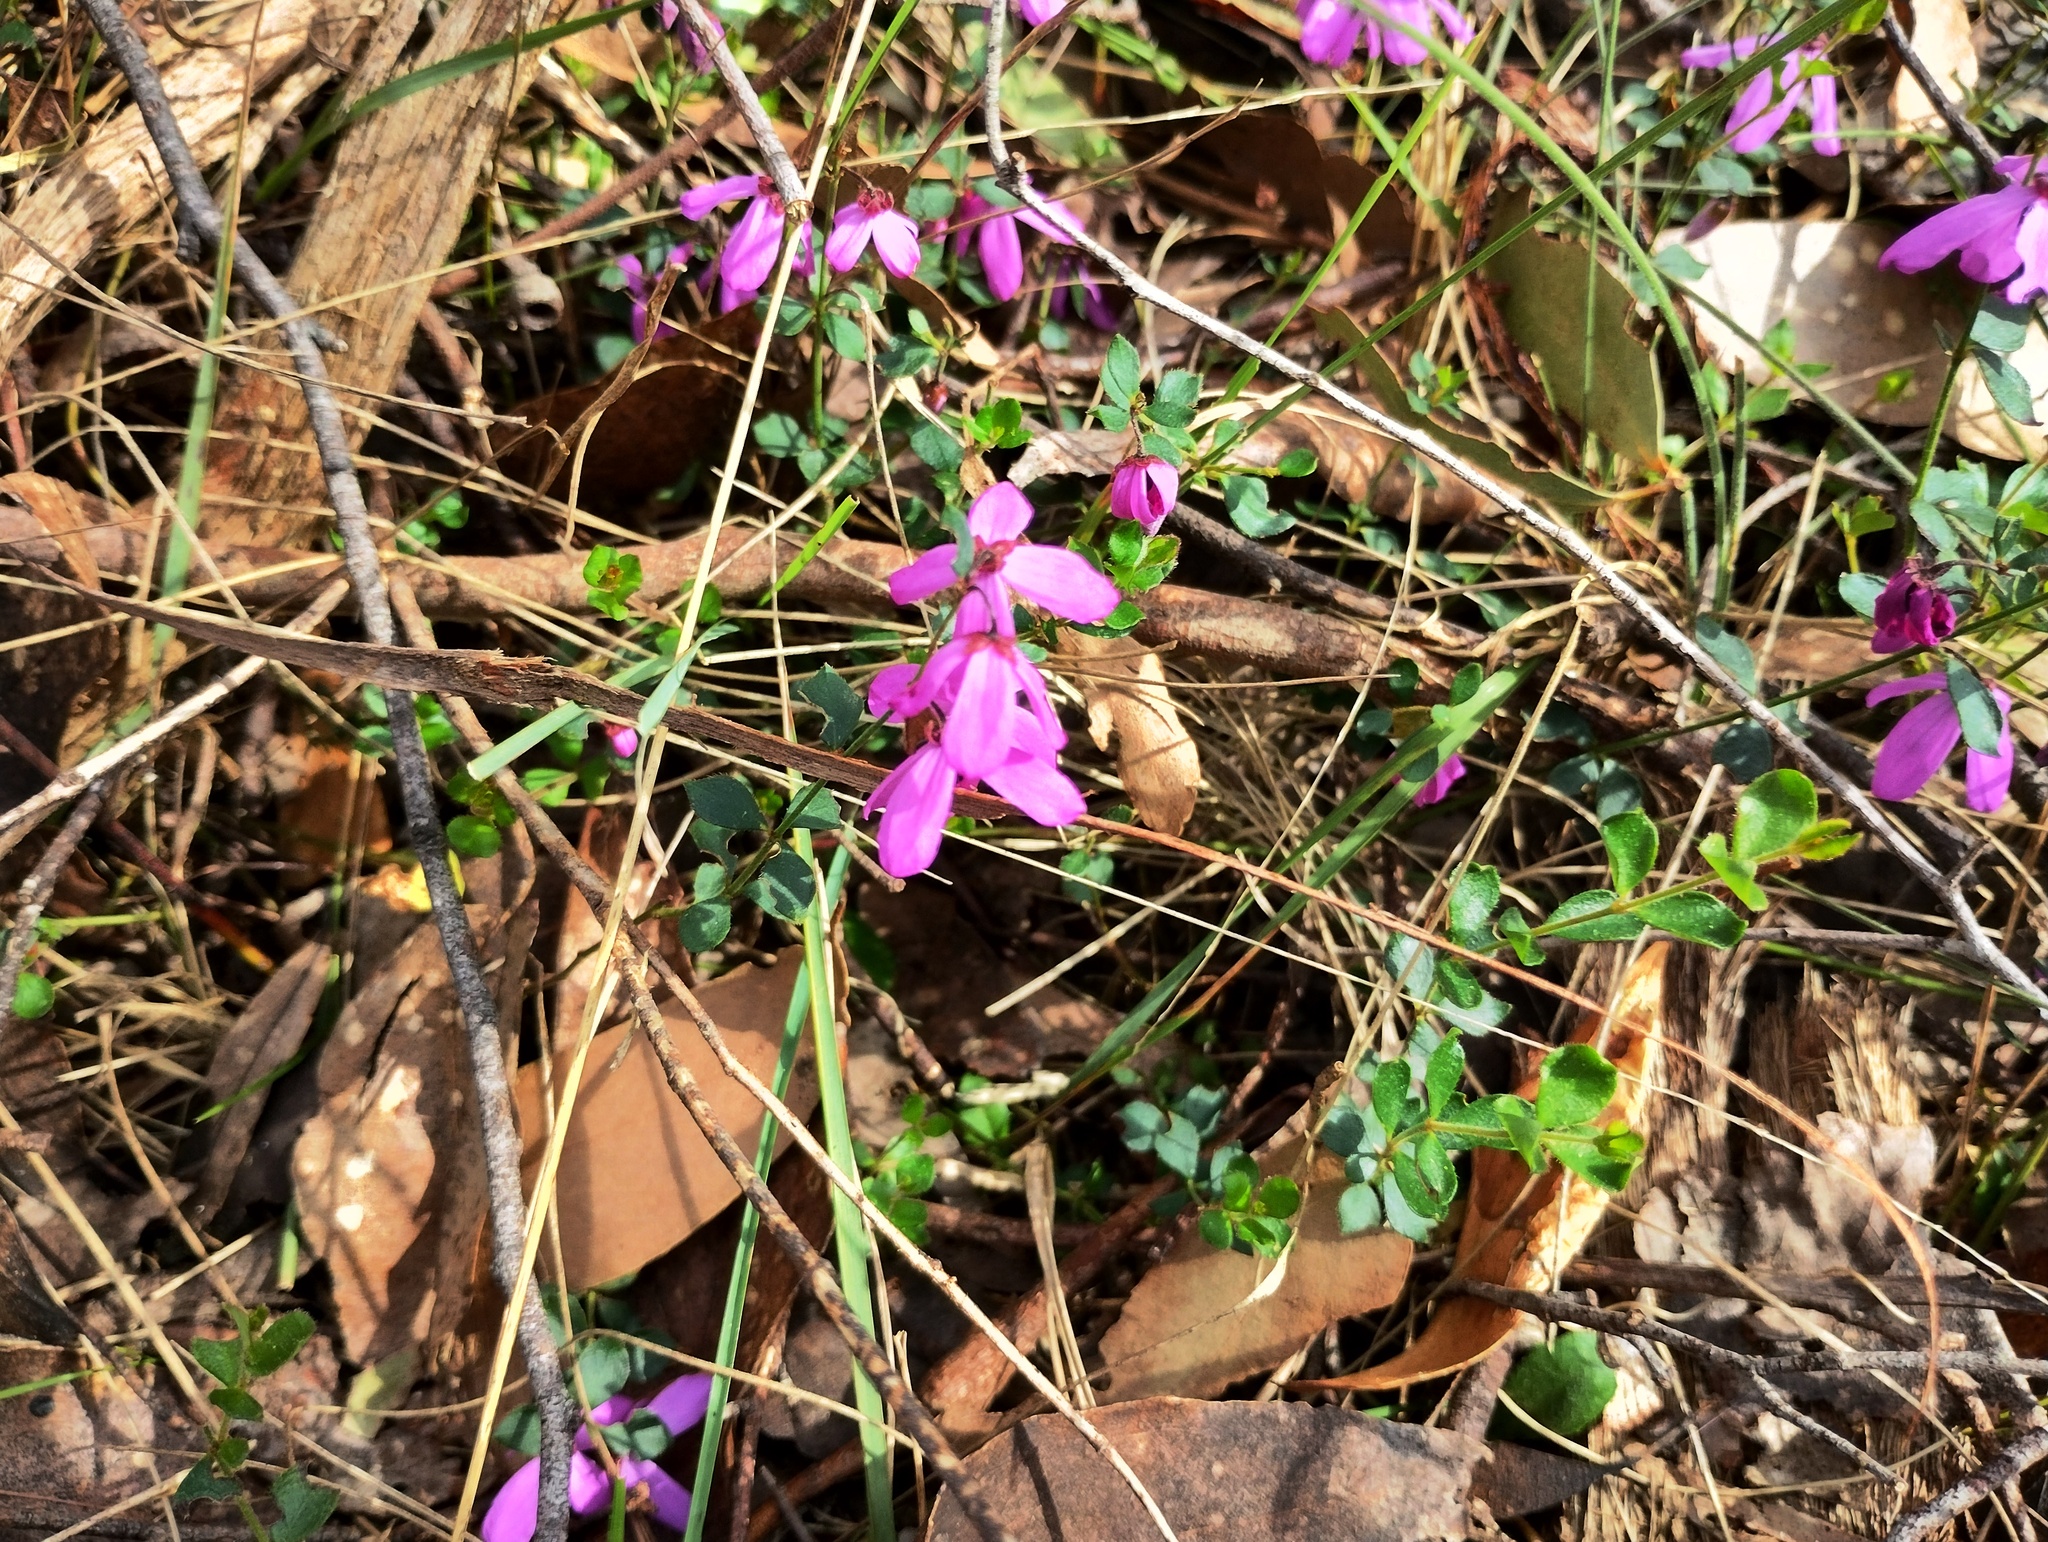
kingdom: Plantae
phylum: Tracheophyta
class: Magnoliopsida
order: Oxalidales
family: Elaeocarpaceae
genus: Tetratheca
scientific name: Tetratheca ciliata
